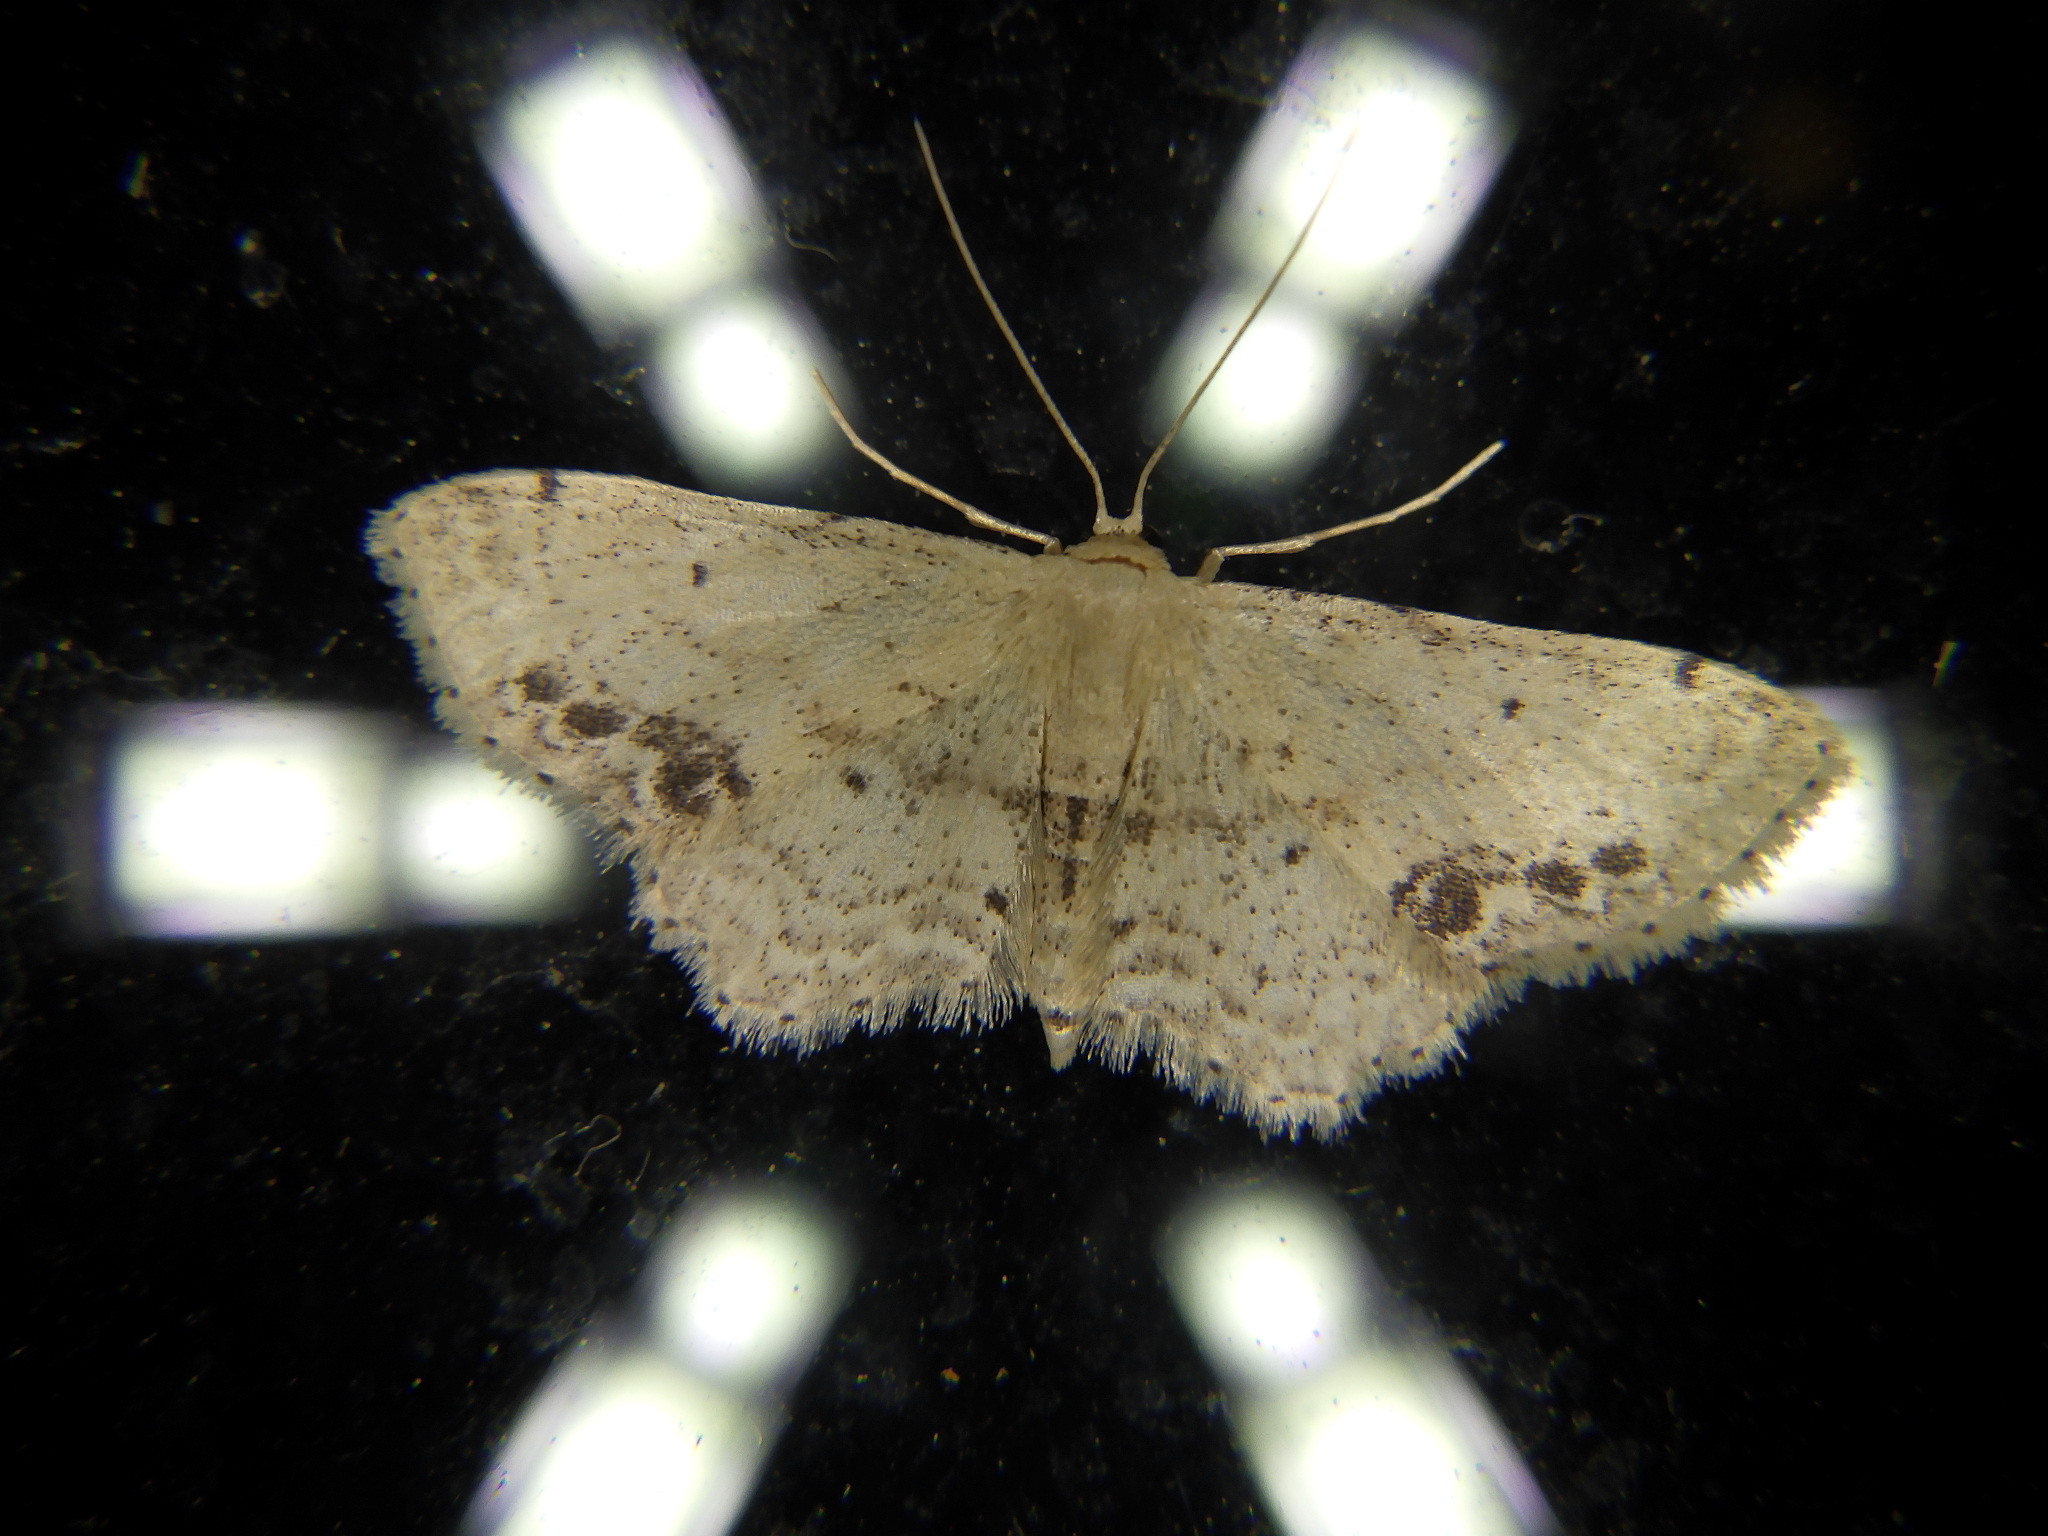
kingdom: Animalia
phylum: Arthropoda
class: Insecta
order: Lepidoptera
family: Geometridae
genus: Idaea
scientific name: Idaea dimidiata
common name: Single-dotted wave
